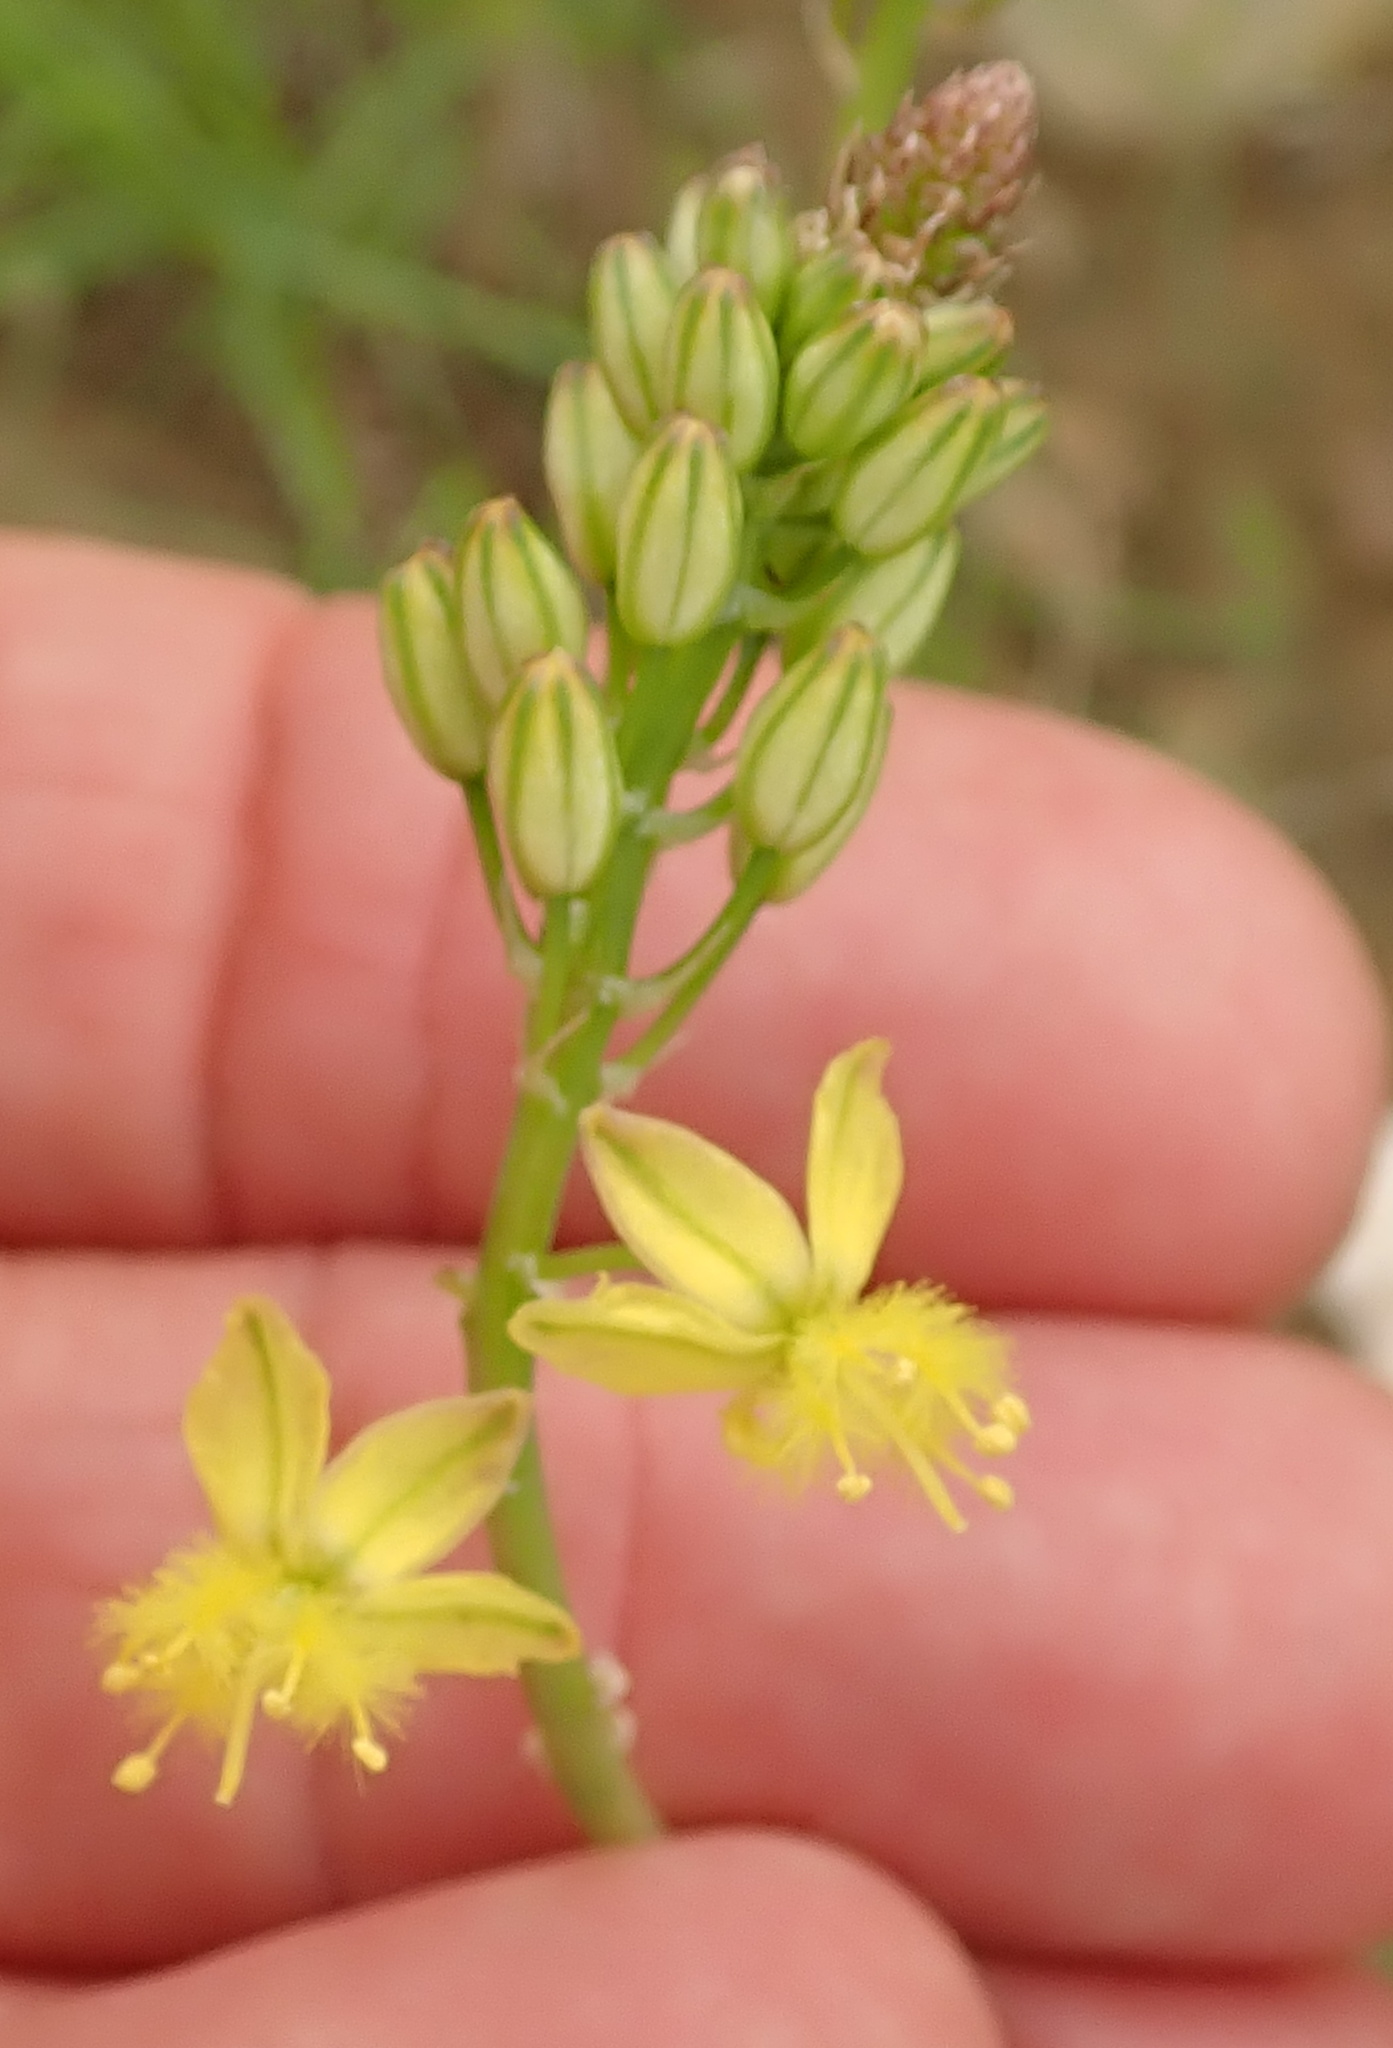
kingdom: Plantae
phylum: Tracheophyta
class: Liliopsida
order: Asparagales
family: Asphodelaceae
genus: Bulbine
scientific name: Bulbine frutescens
